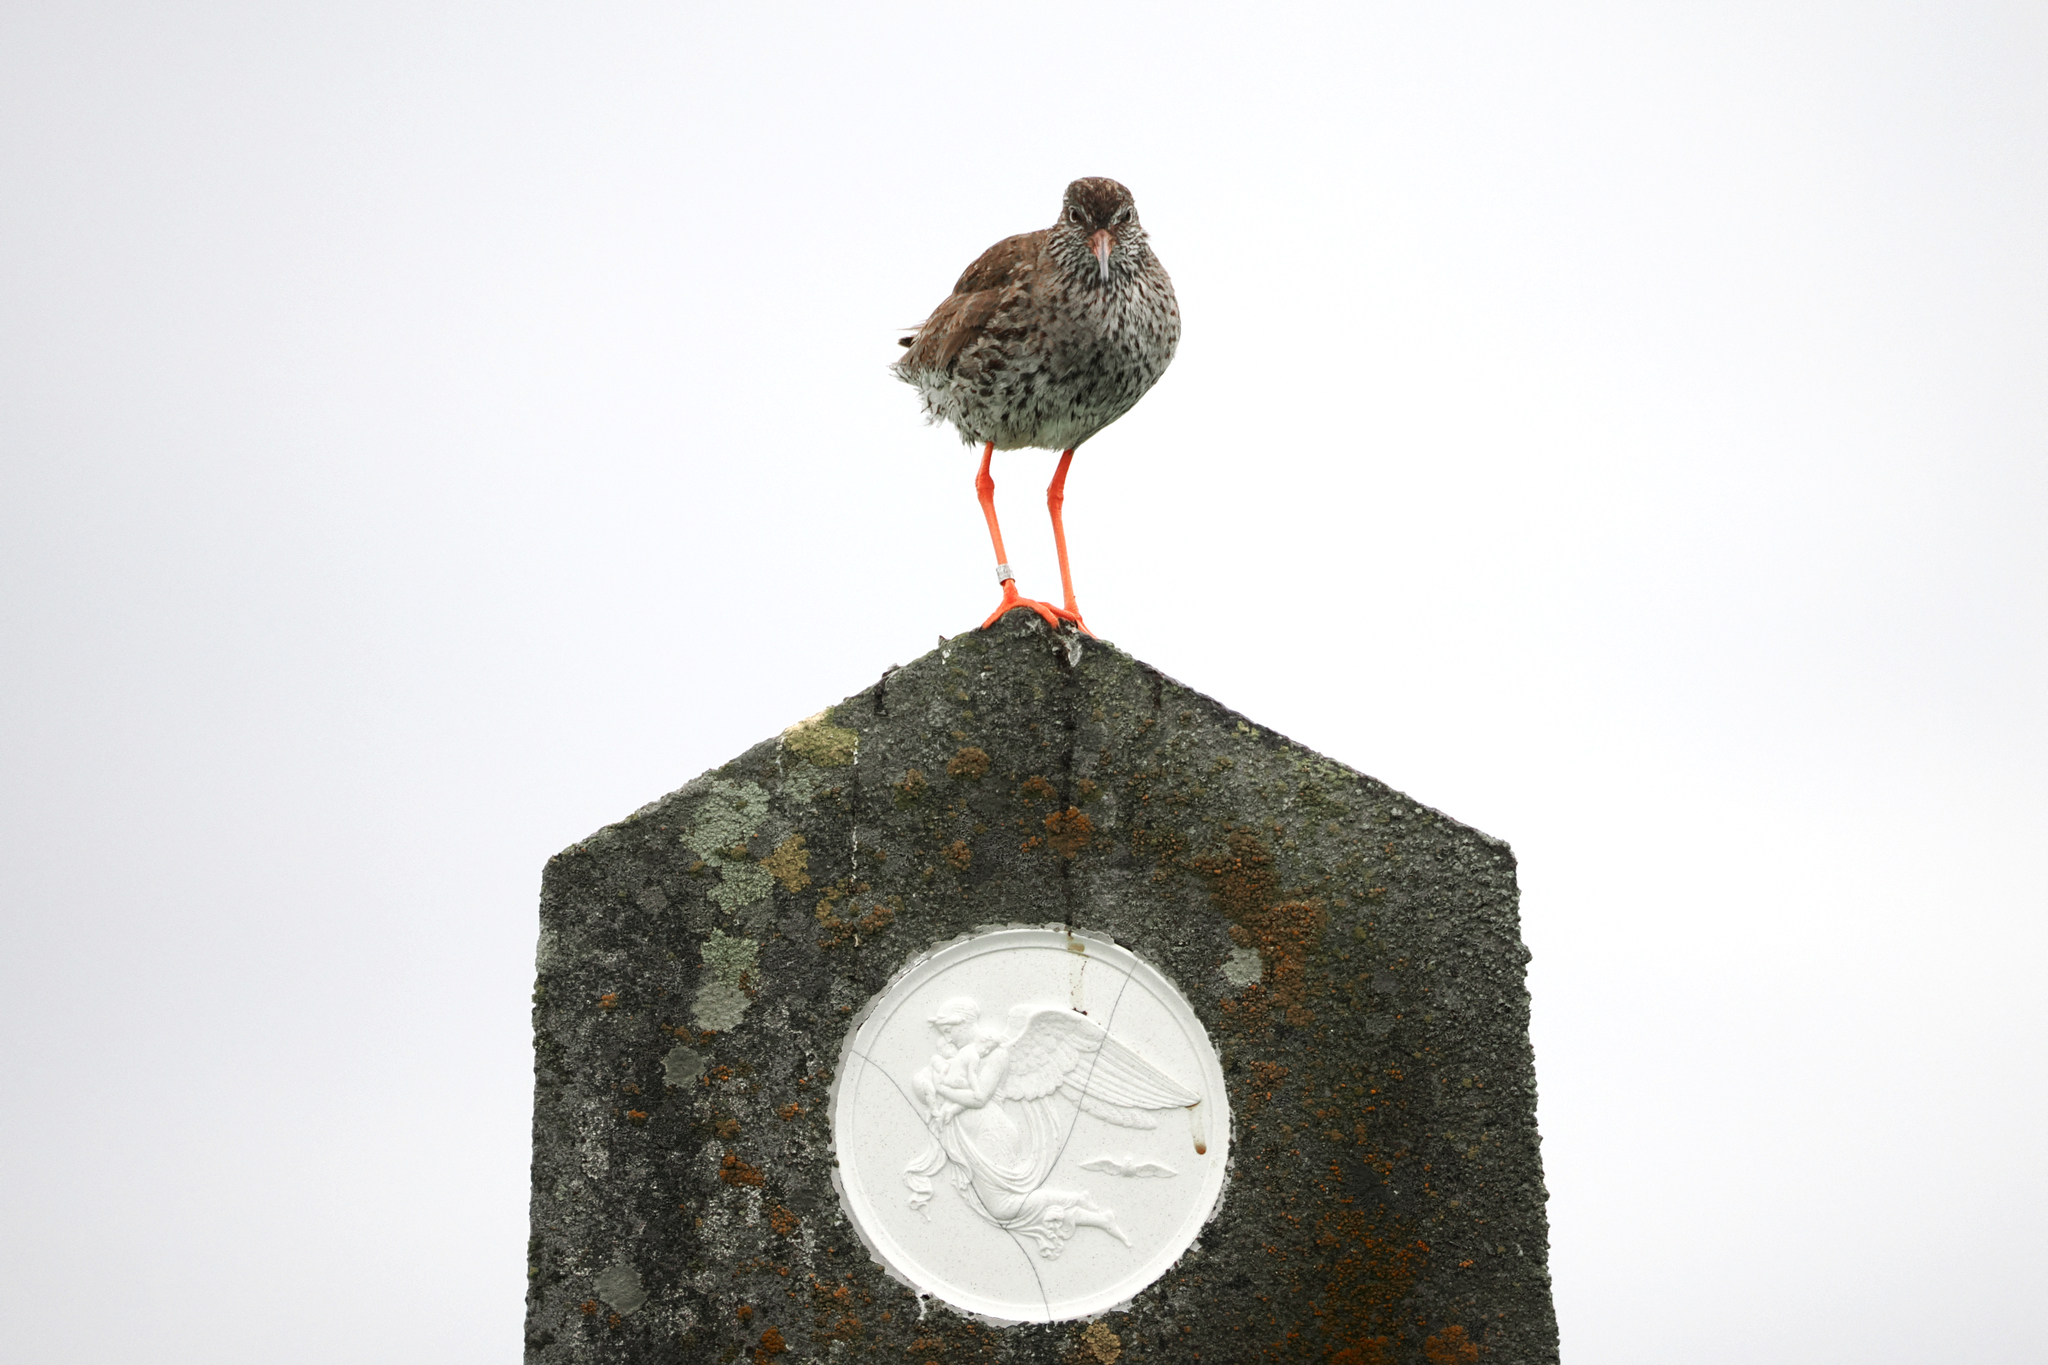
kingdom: Animalia
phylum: Chordata
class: Aves
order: Charadriiformes
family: Scolopacidae
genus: Tringa
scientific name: Tringa totanus
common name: Common redshank
